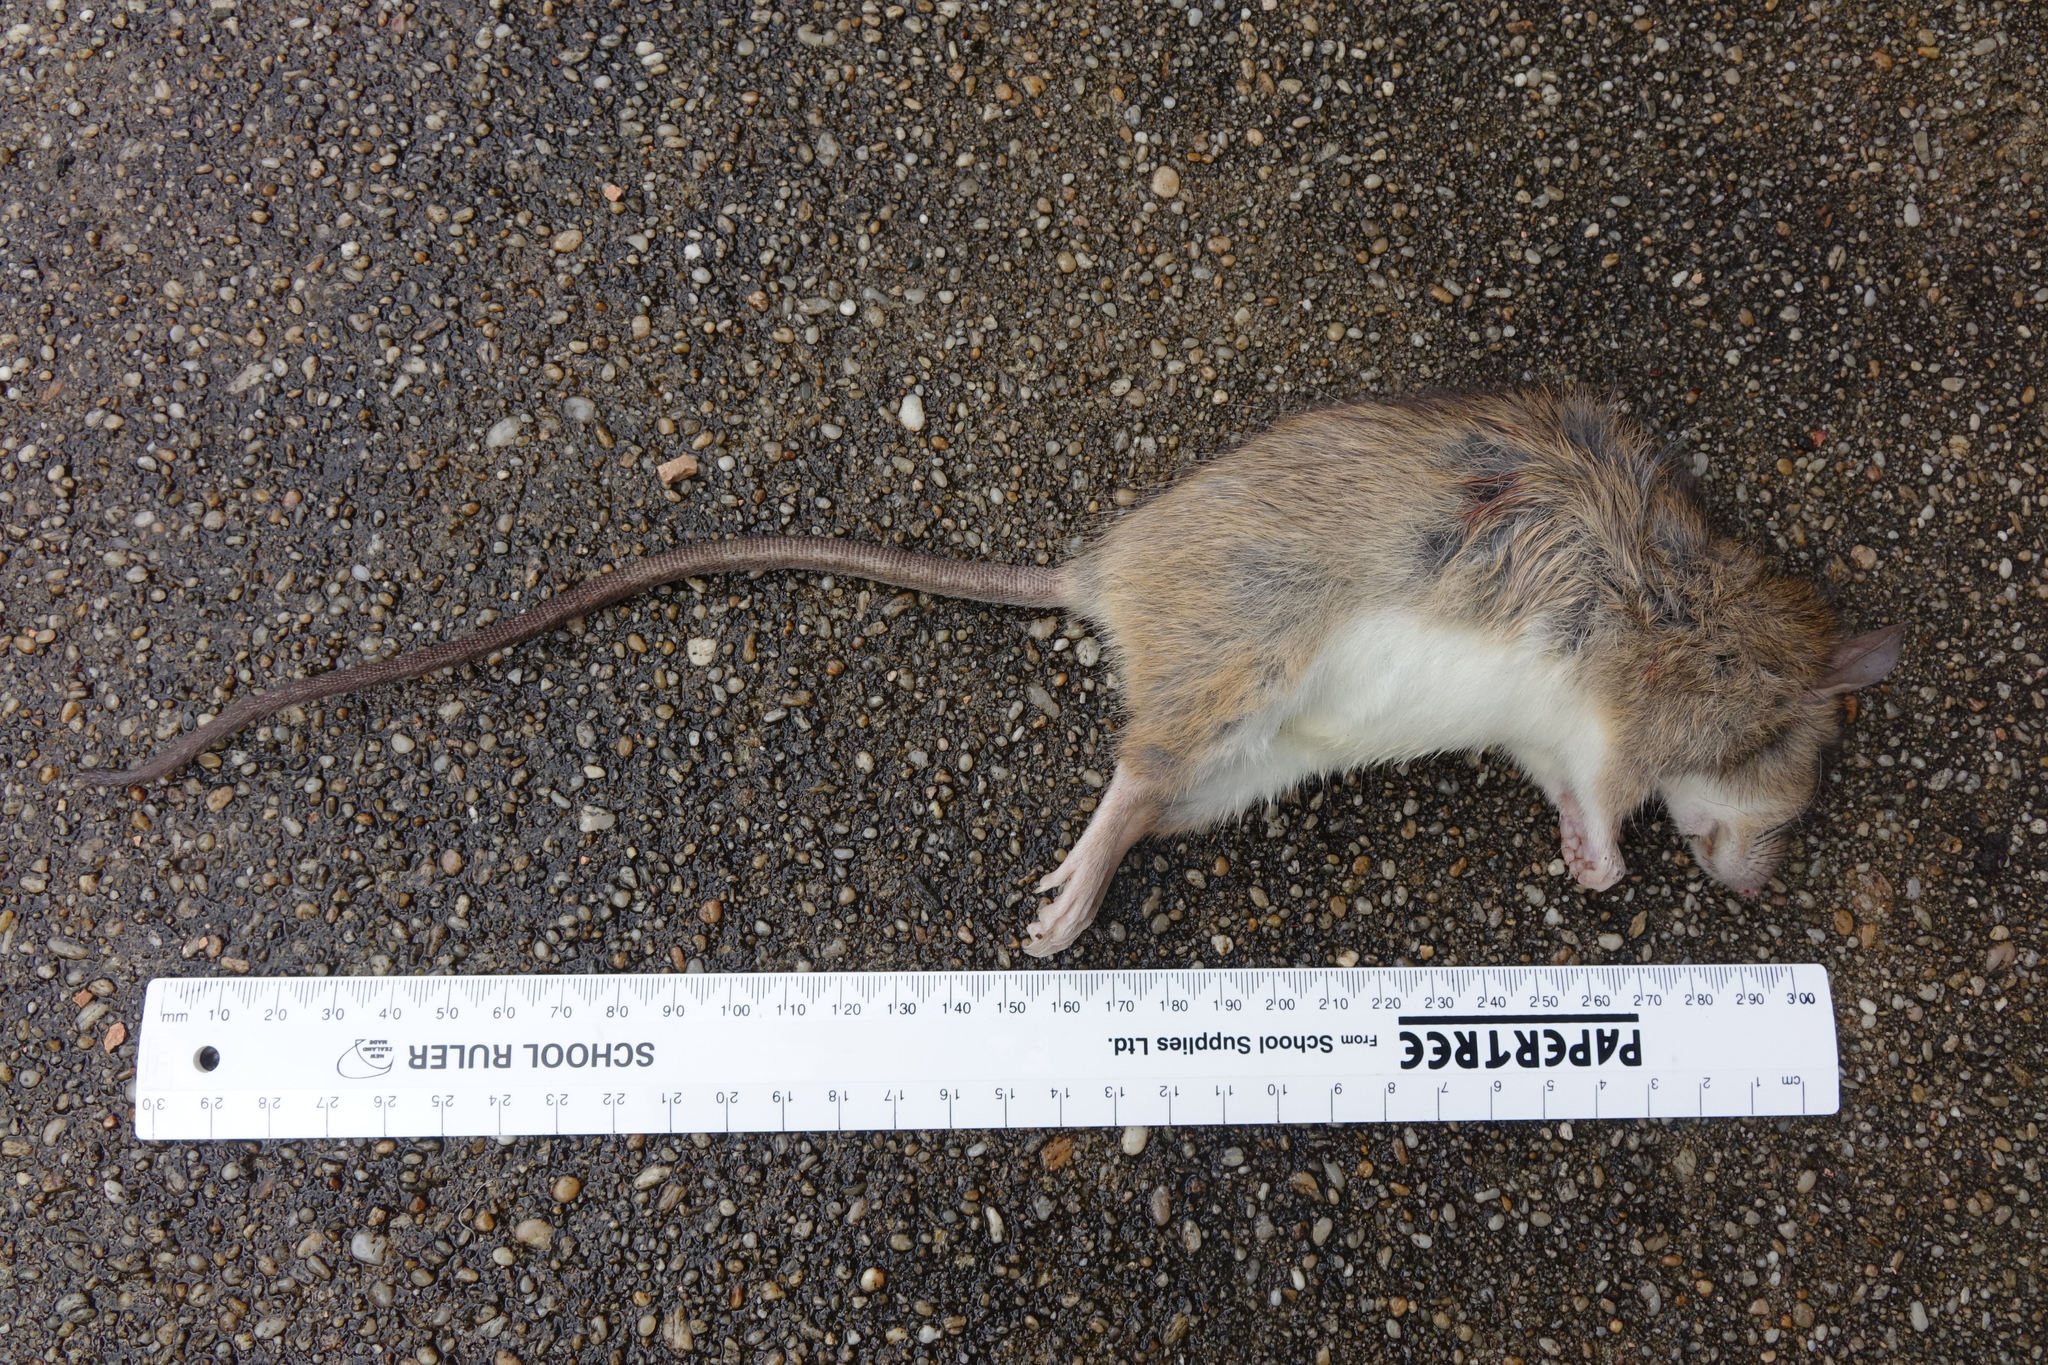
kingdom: Animalia
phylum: Chordata
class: Mammalia
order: Rodentia
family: Muridae
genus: Rattus
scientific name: Rattus rattus
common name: Black rat
